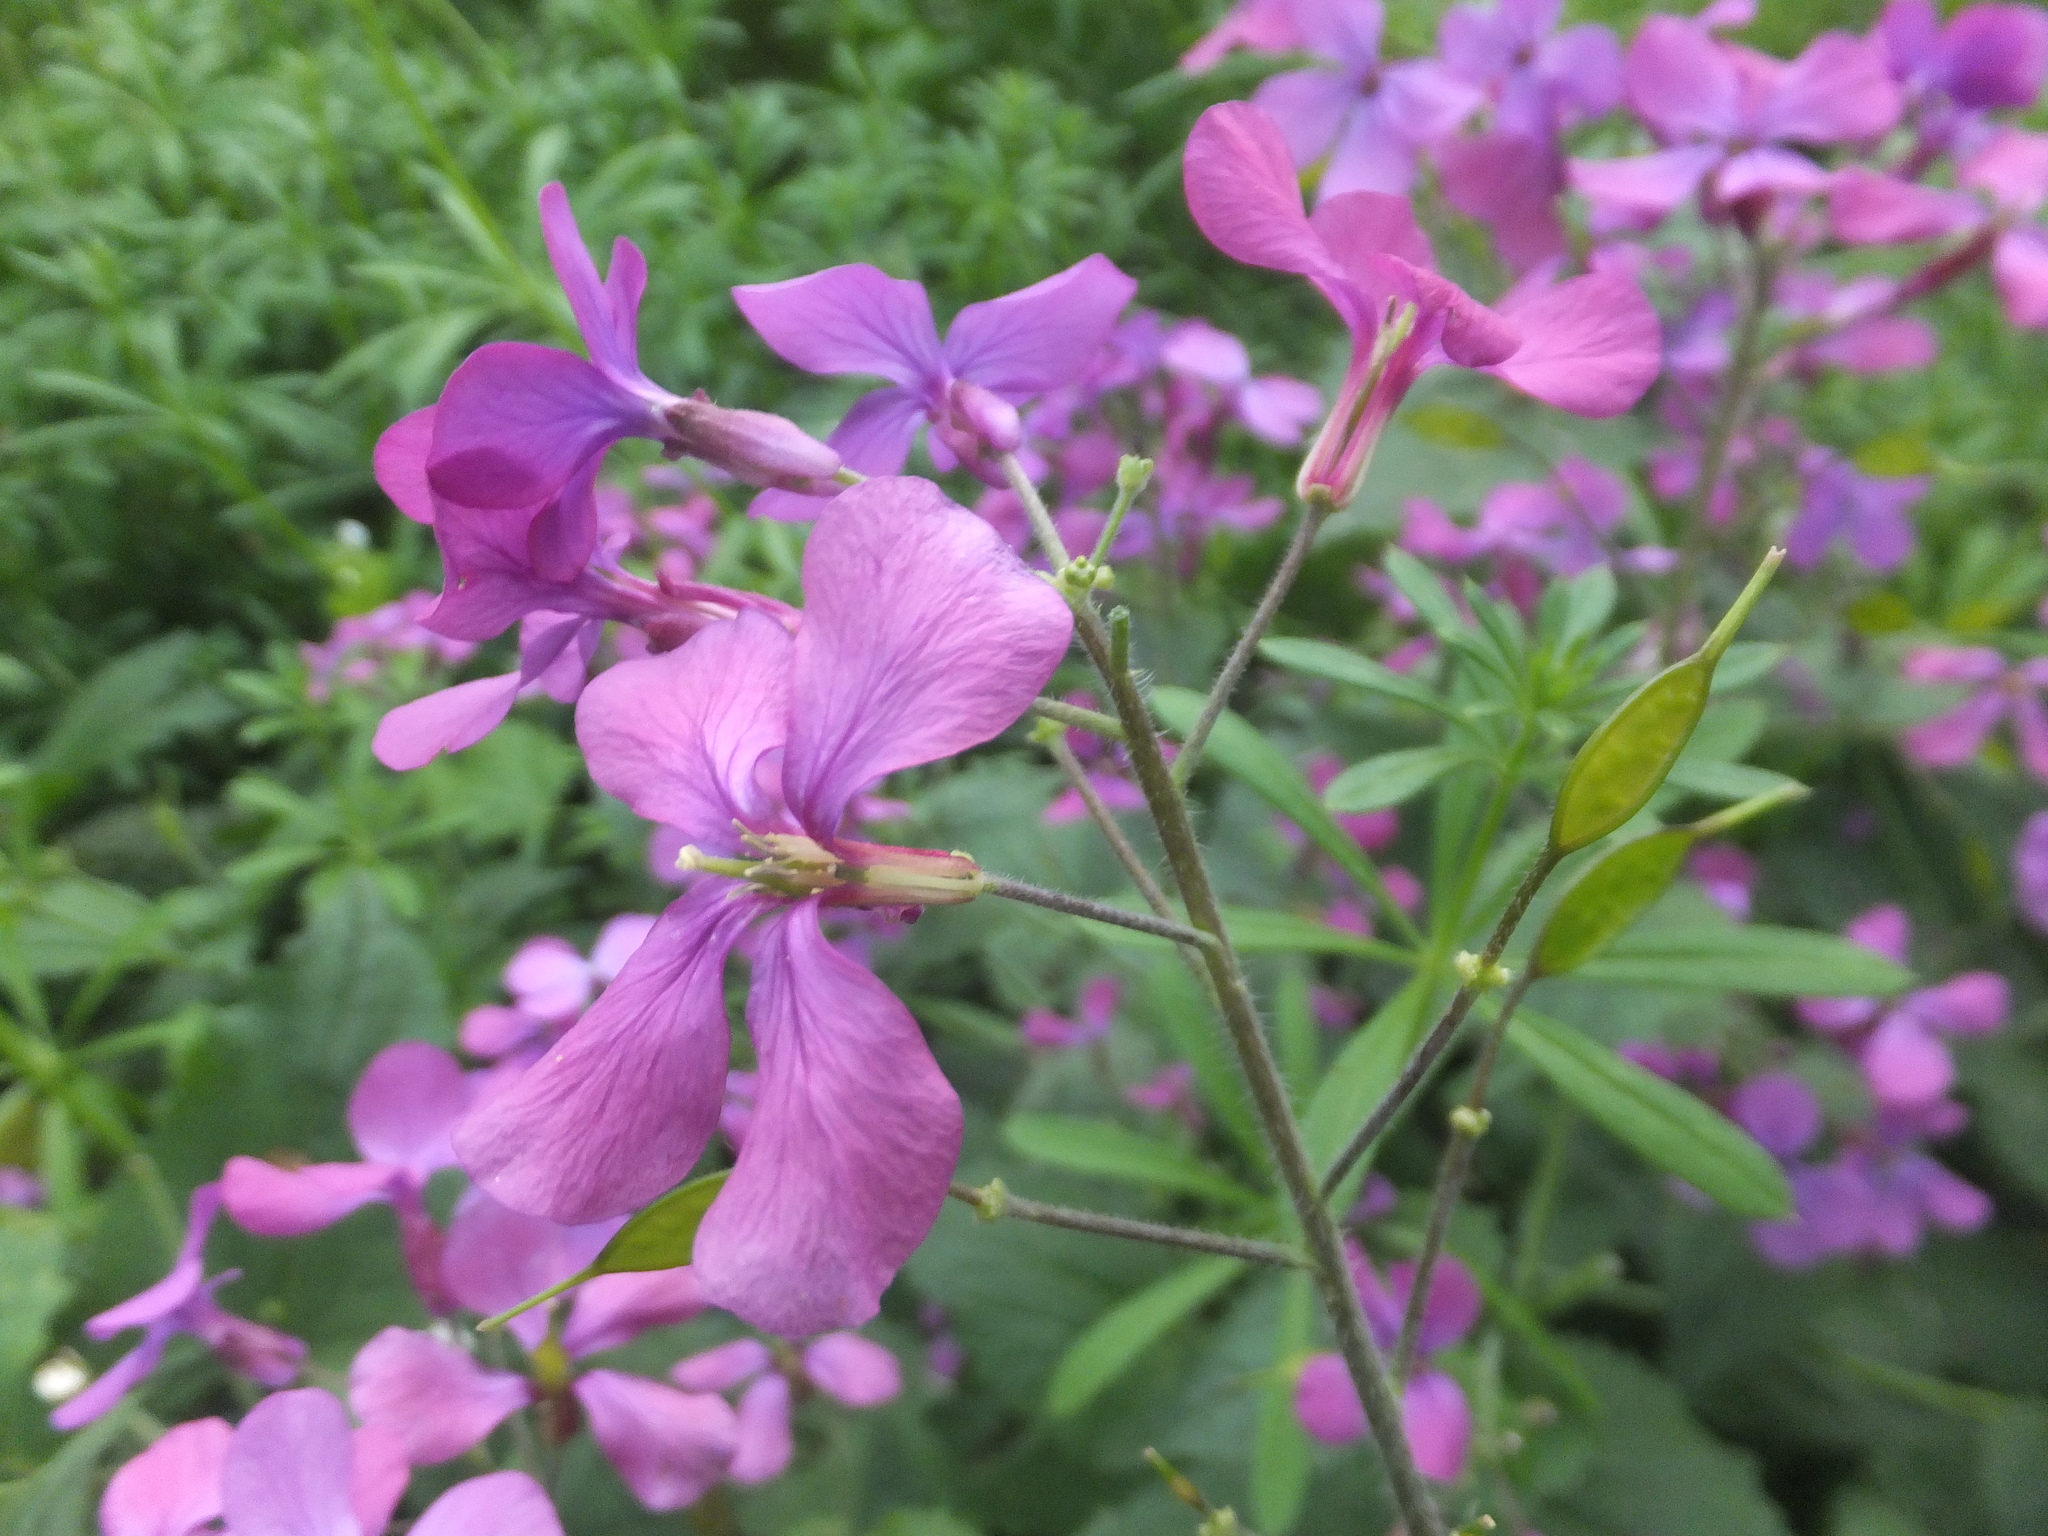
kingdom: Plantae
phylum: Tracheophyta
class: Magnoliopsida
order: Brassicales
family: Brassicaceae
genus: Lunaria
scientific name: Lunaria annua
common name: Honesty
